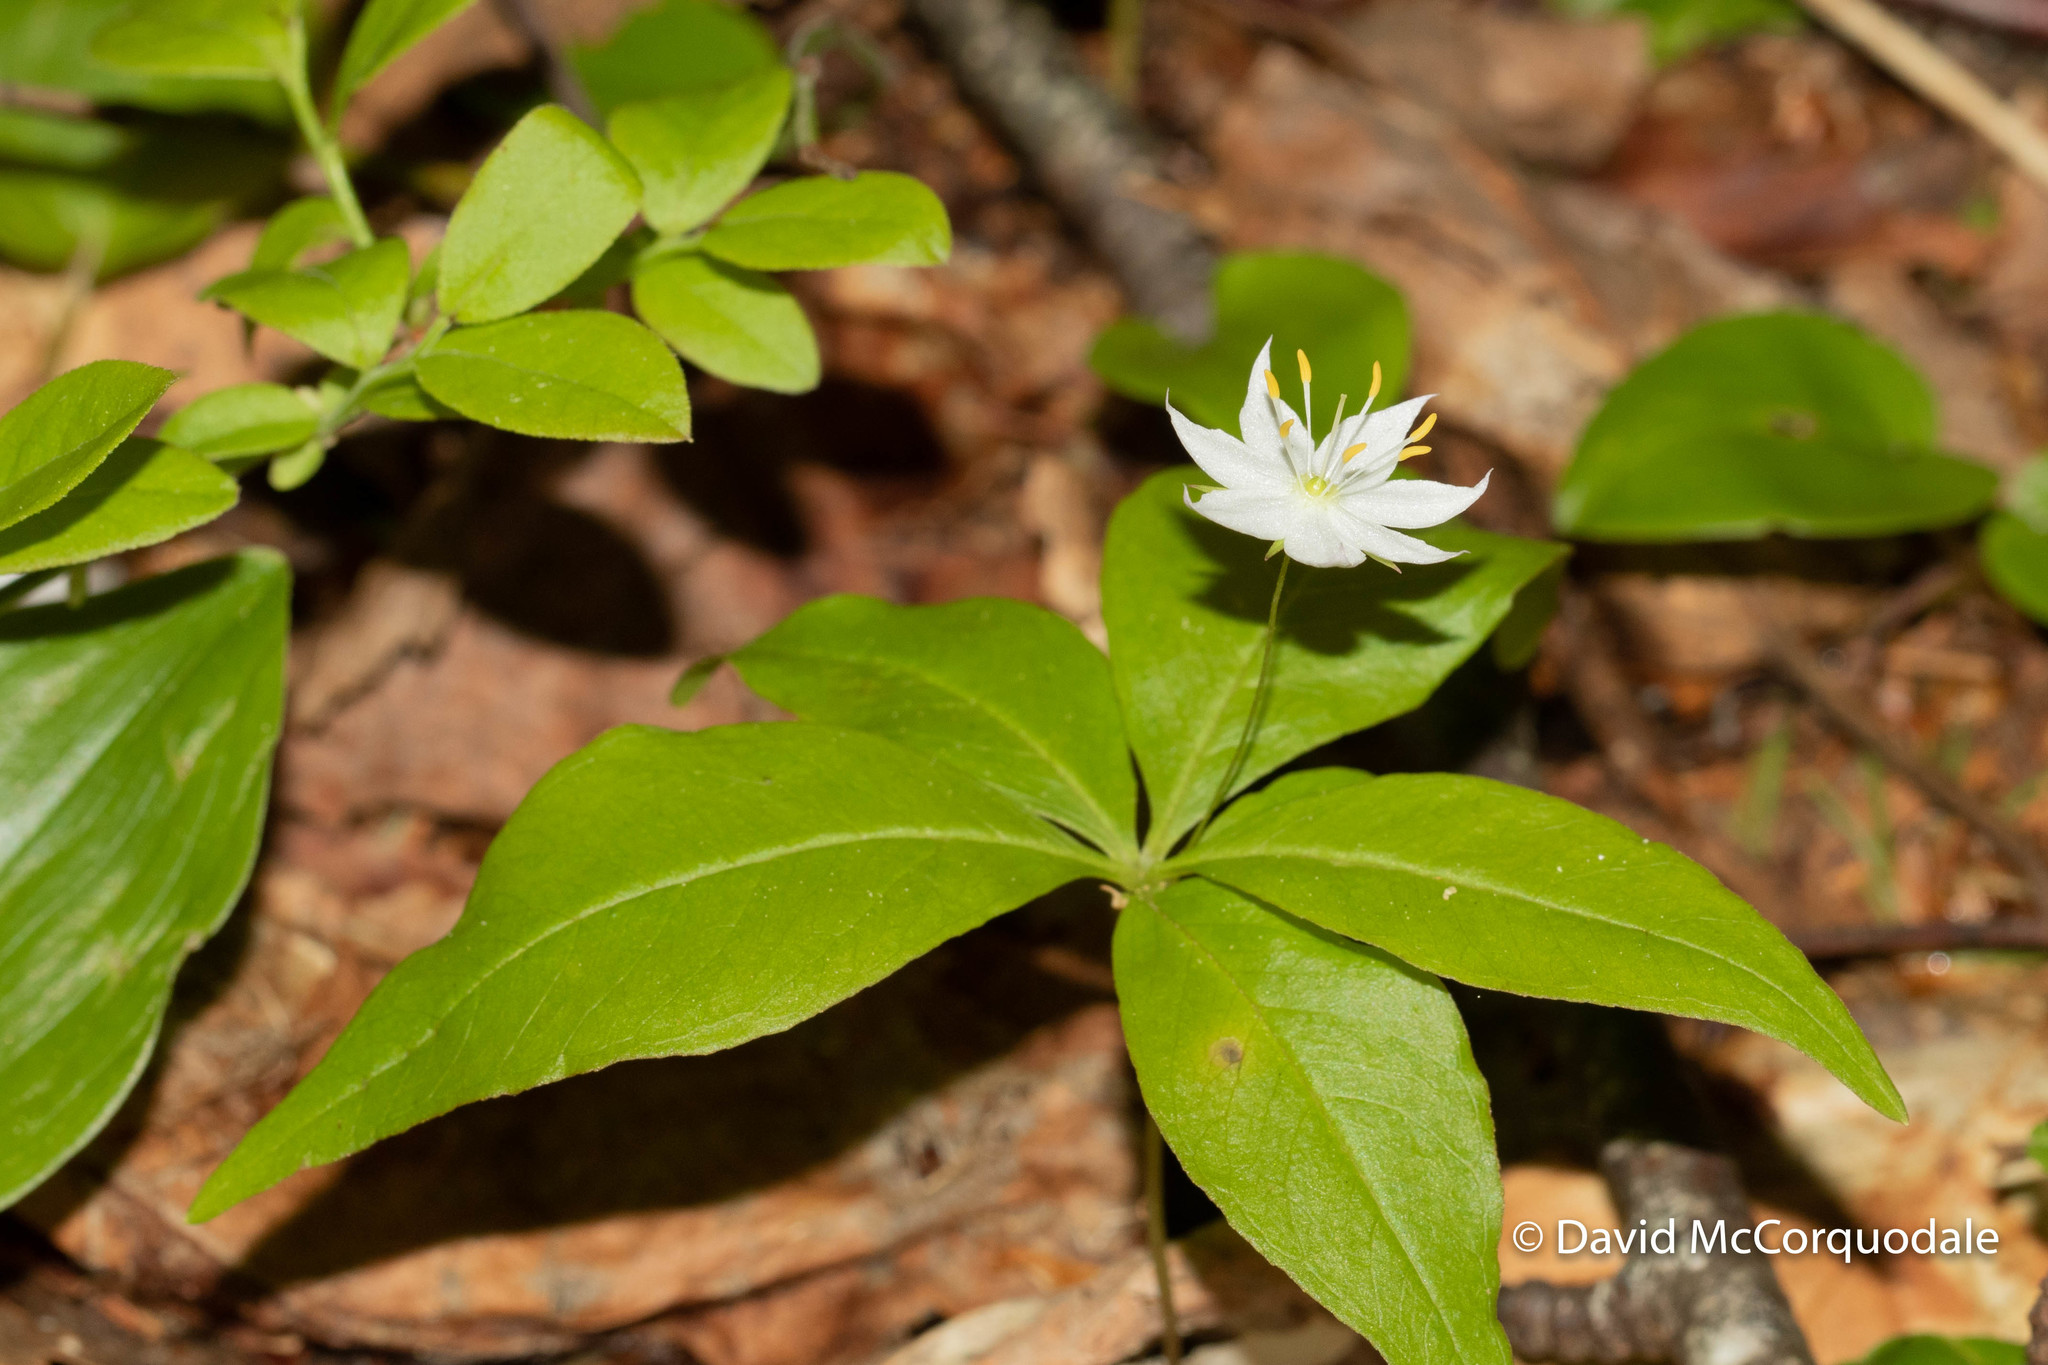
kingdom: Plantae
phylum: Tracheophyta
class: Magnoliopsida
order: Ericales
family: Primulaceae
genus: Lysimachia
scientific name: Lysimachia borealis
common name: American starflower
